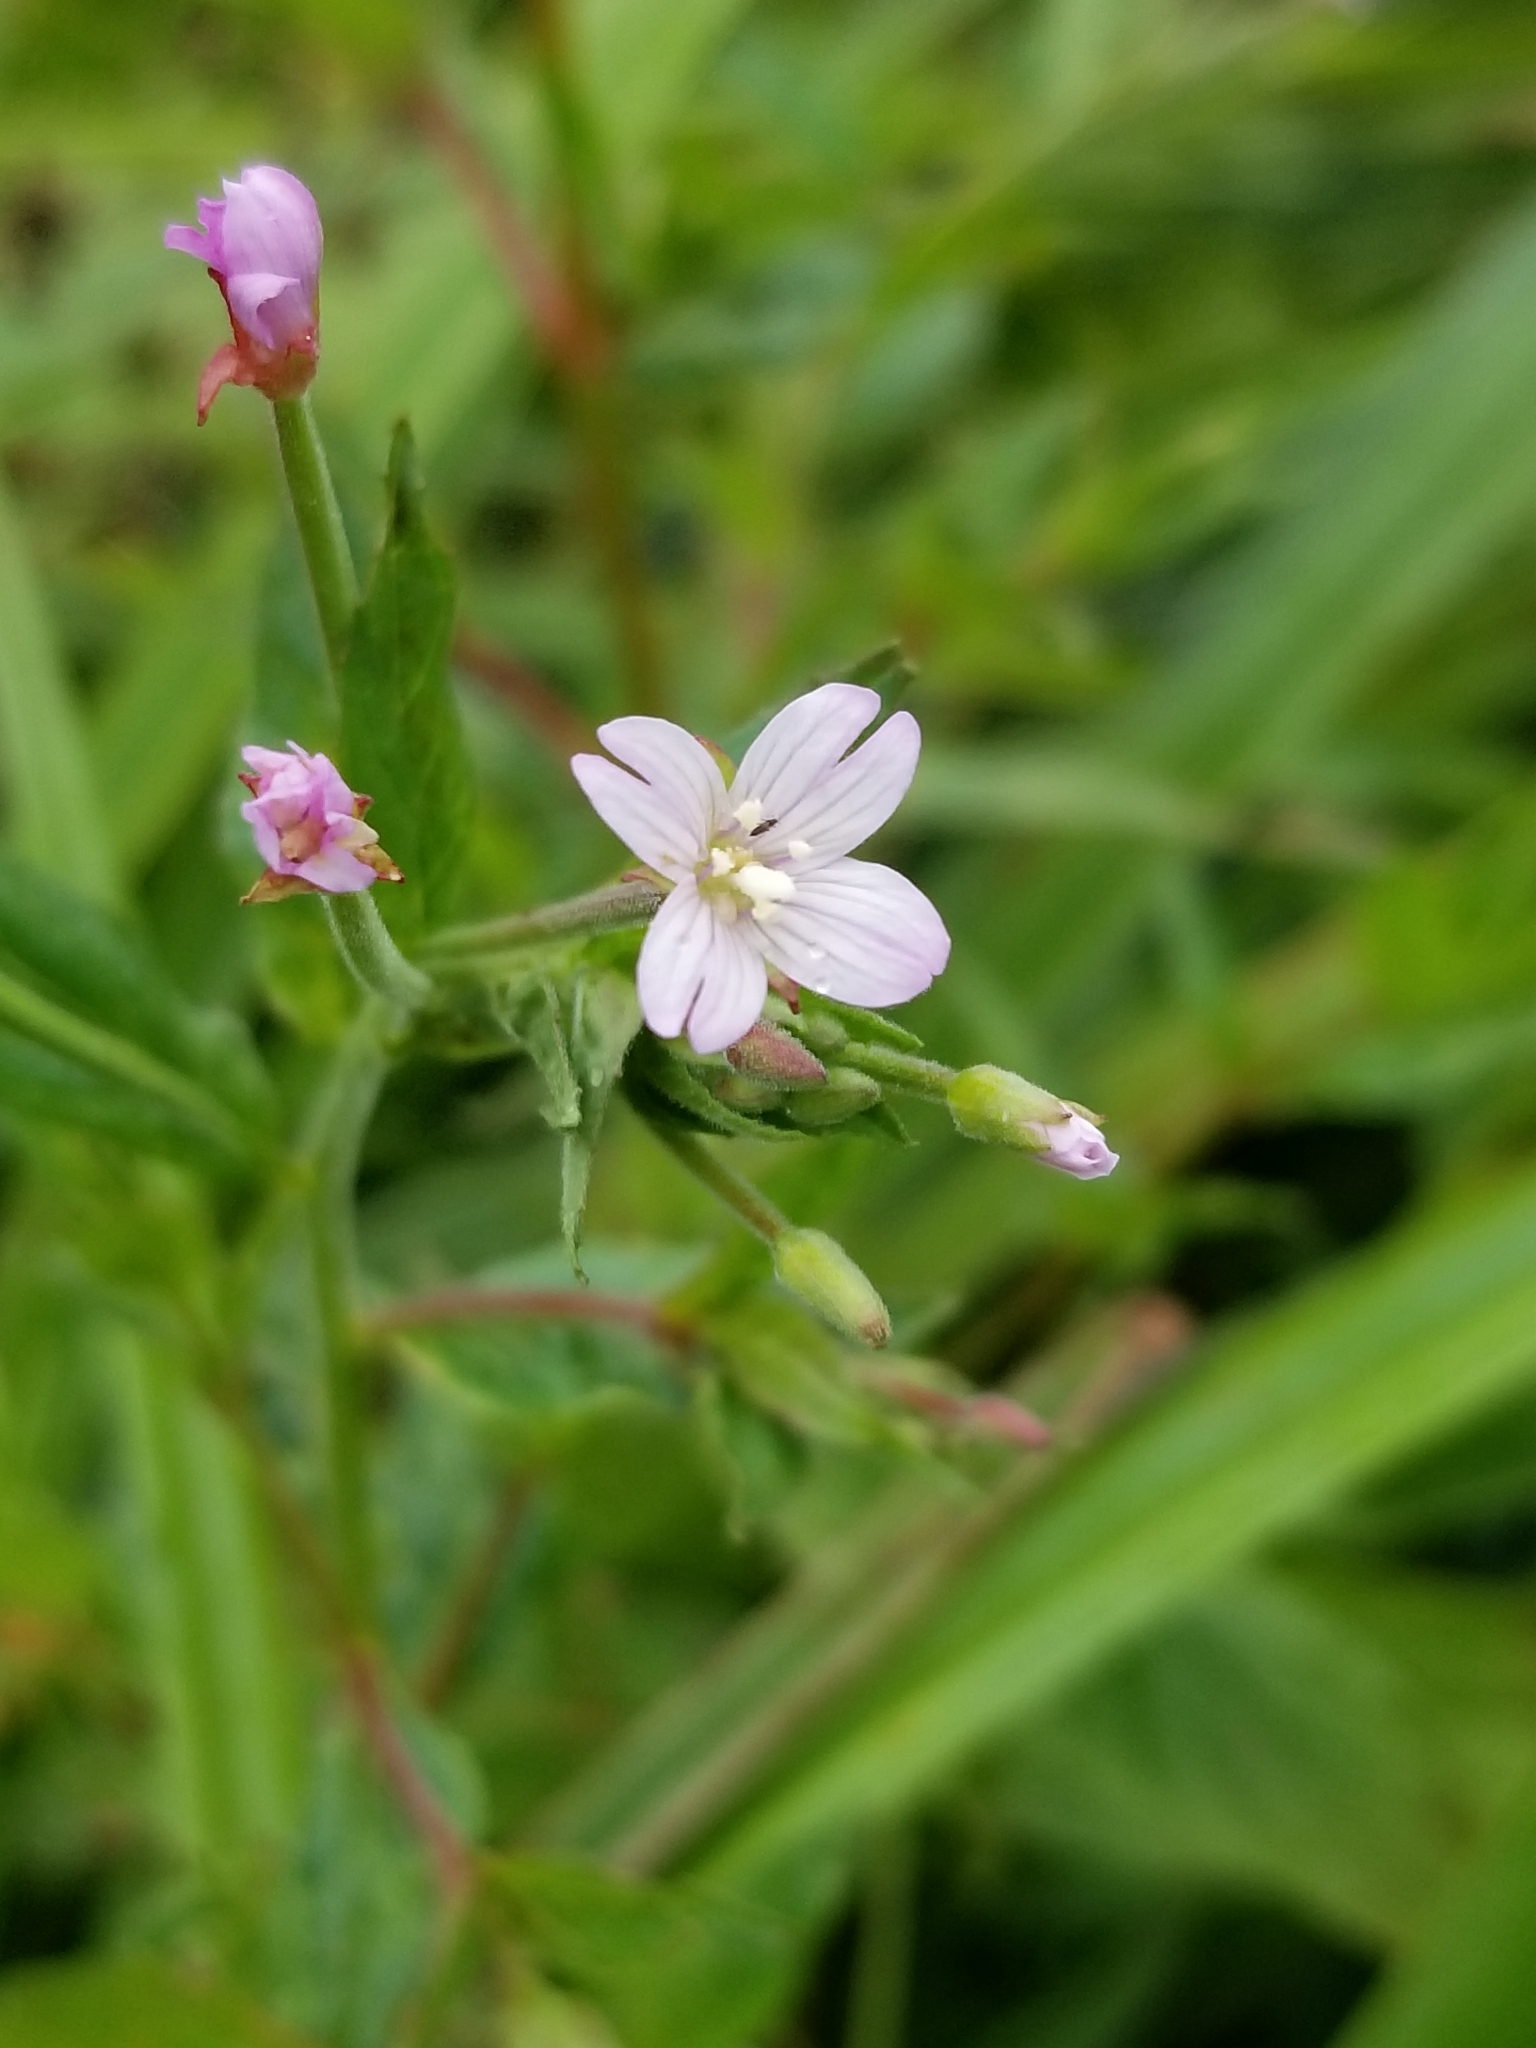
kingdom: Plantae
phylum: Tracheophyta
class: Magnoliopsida
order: Myrtales
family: Onagraceae
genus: Epilobium
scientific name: Epilobium ciliatum
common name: American willowherb
